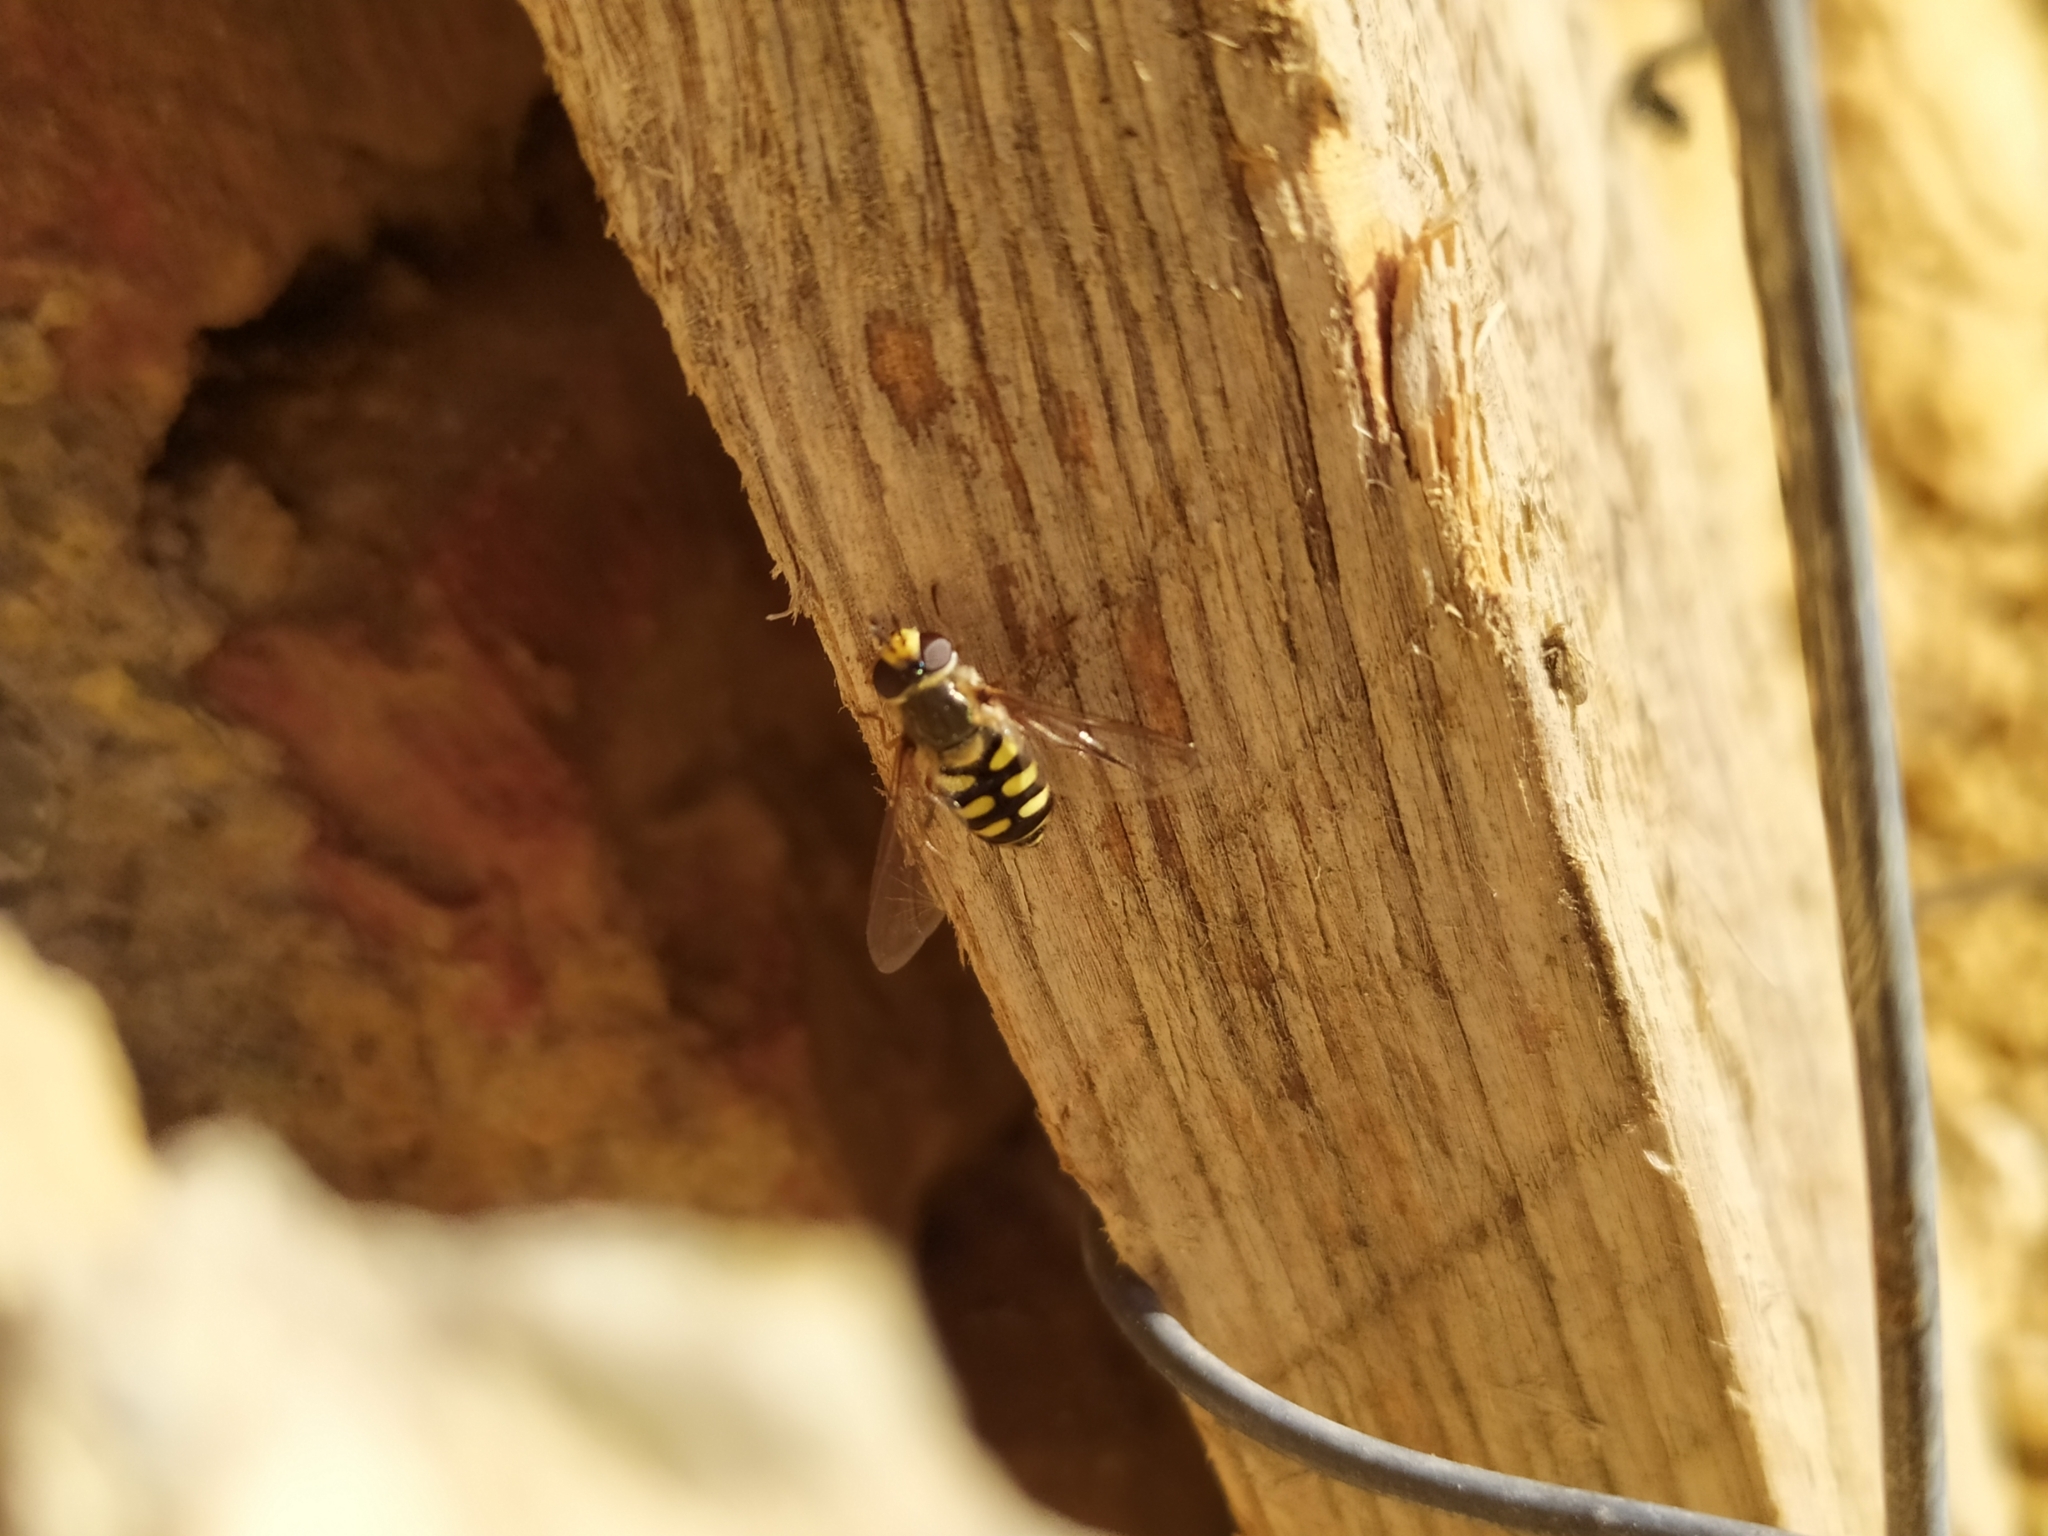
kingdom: Animalia
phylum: Arthropoda
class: Insecta
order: Diptera
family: Syrphidae
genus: Eupeodes
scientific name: Eupeodes corollae
